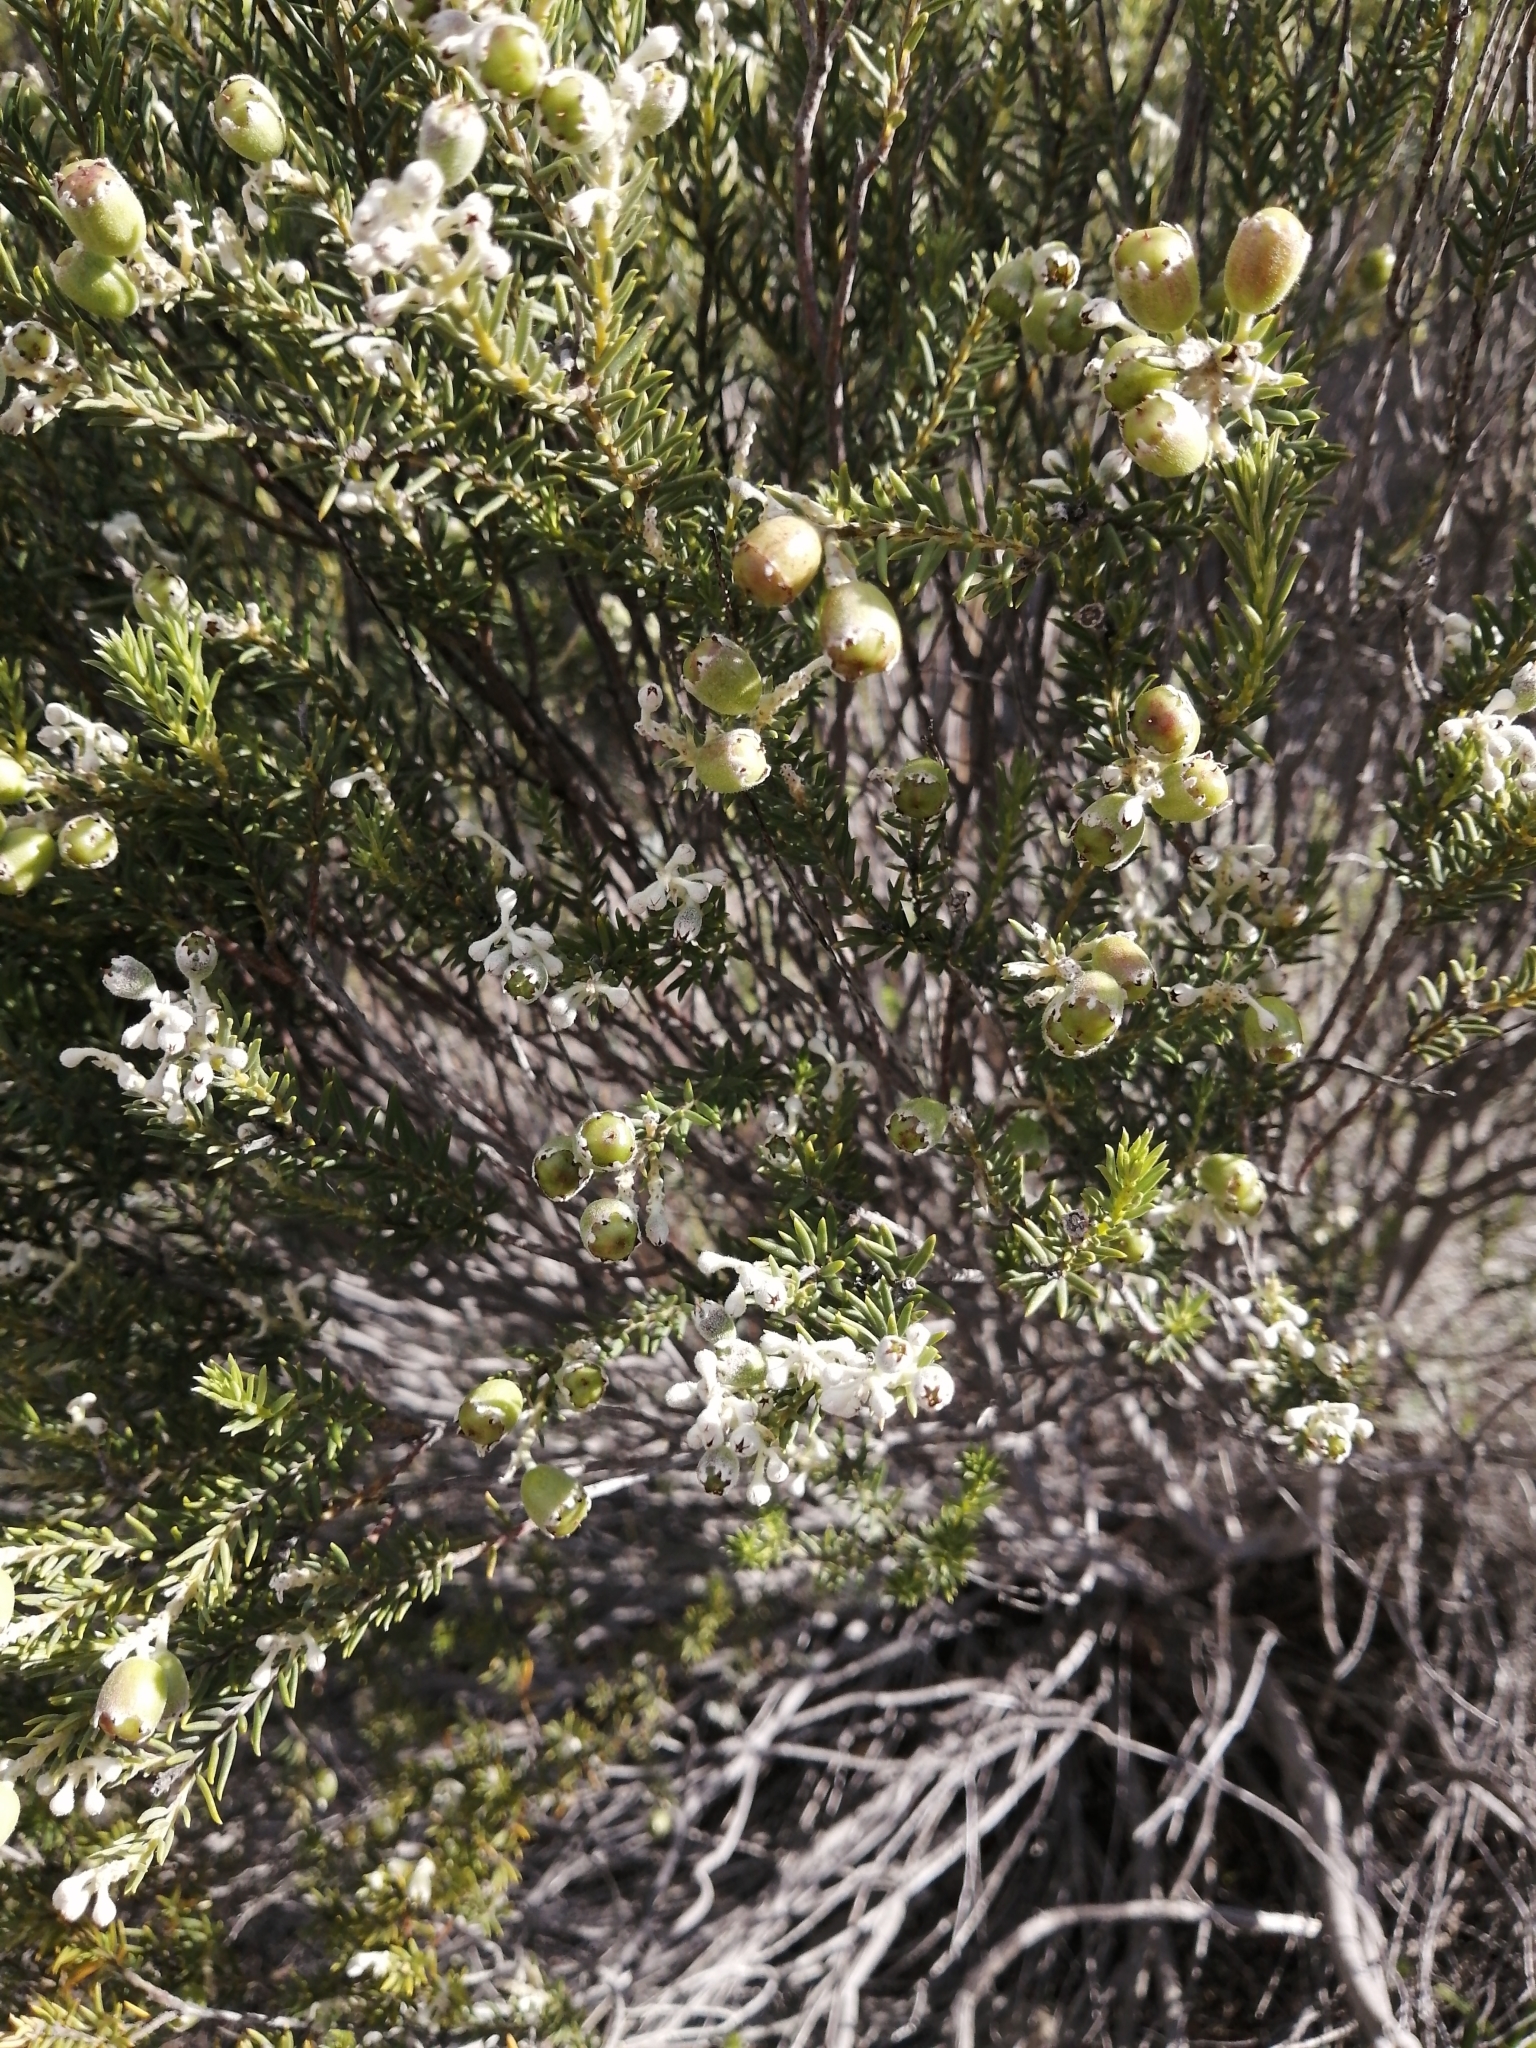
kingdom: Plantae
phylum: Tracheophyta
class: Magnoliopsida
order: Rosales
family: Rhamnaceae
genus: Phylica
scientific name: Phylica rigidifolia
